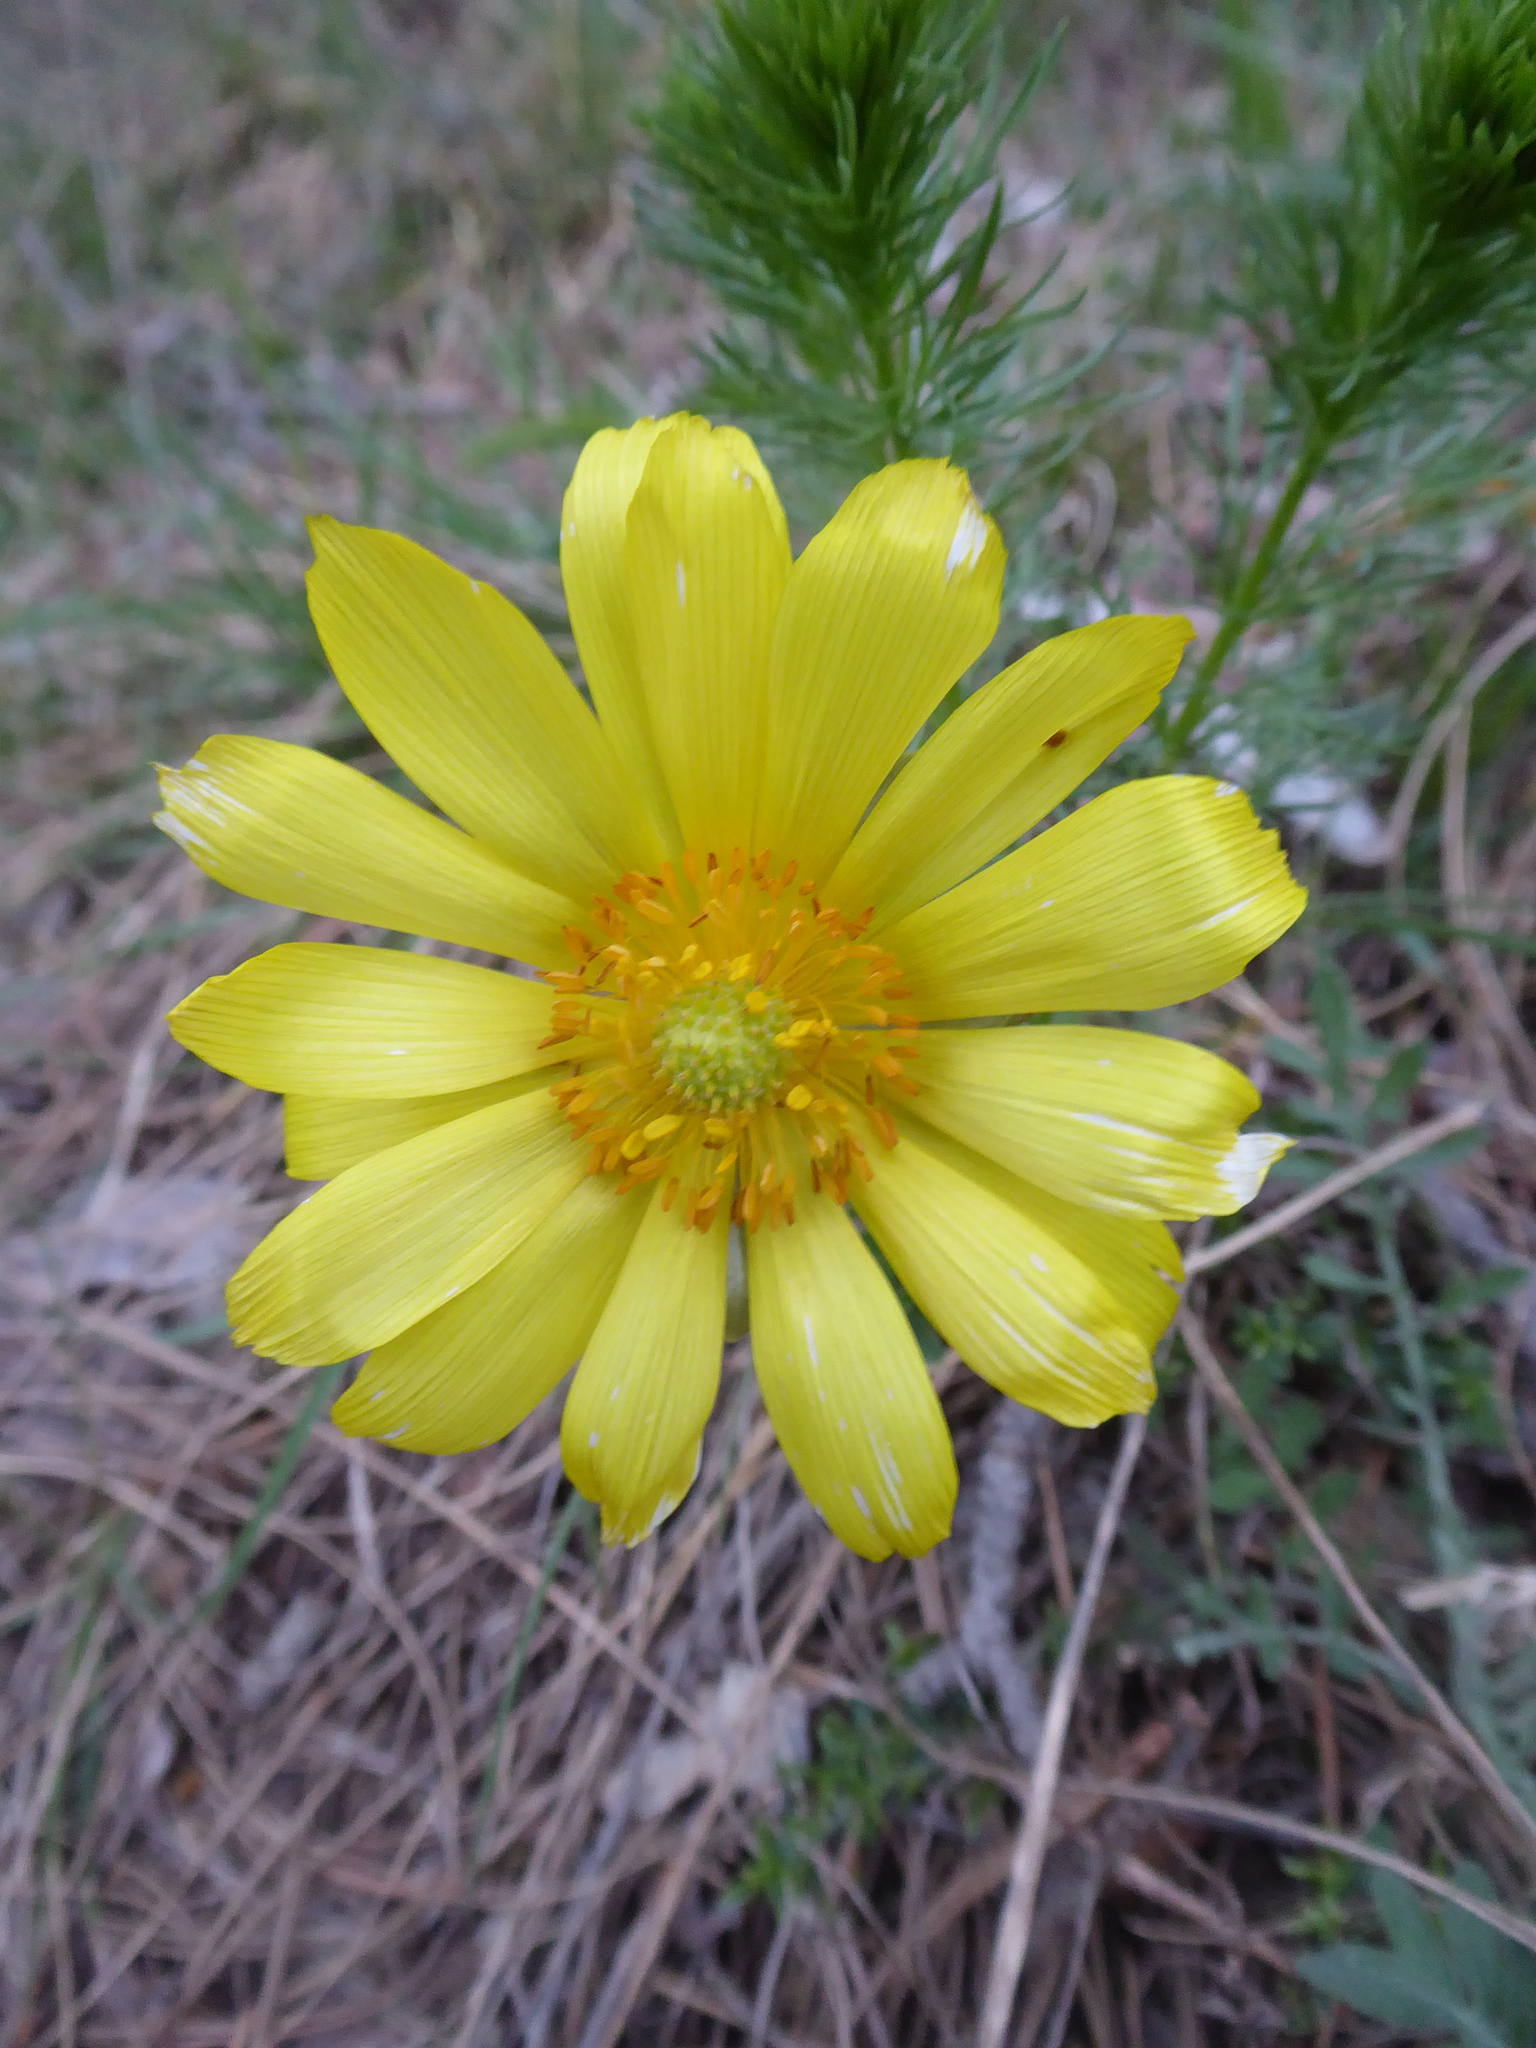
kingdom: Plantae
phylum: Tracheophyta
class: Magnoliopsida
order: Ranunculales
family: Ranunculaceae
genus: Adonis
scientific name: Adonis vernalis
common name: Yellow pheasants-eye
